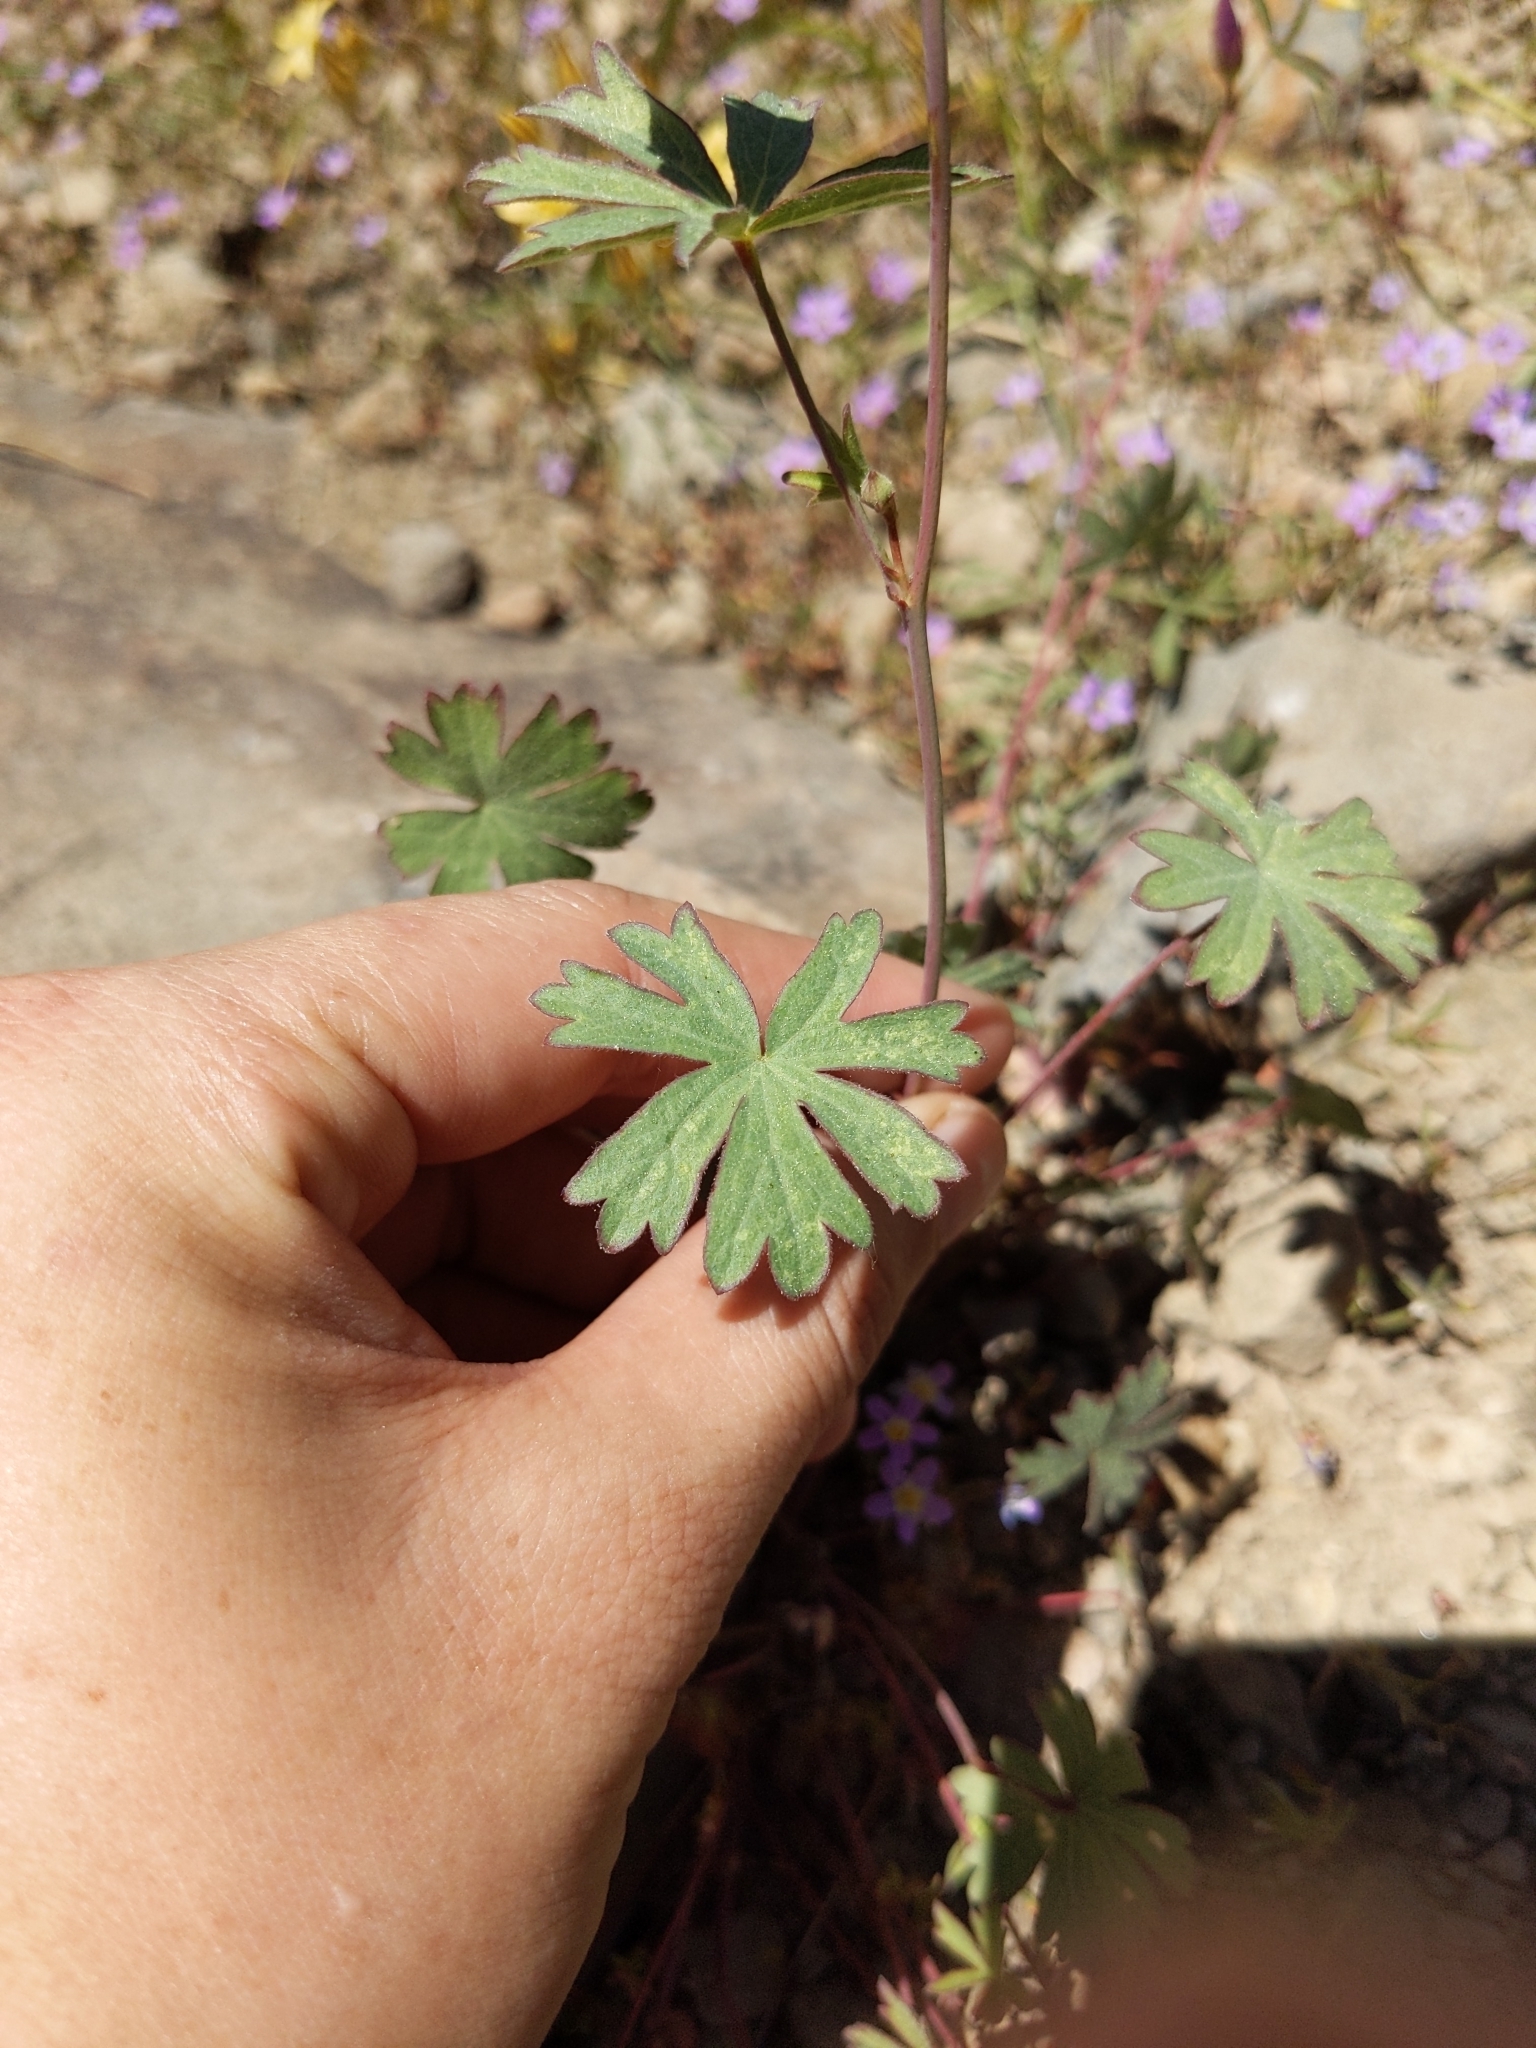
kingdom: Plantae
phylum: Tracheophyta
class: Magnoliopsida
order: Malvales
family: Malvaceae
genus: Sidalcea
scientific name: Sidalcea glaucescens
